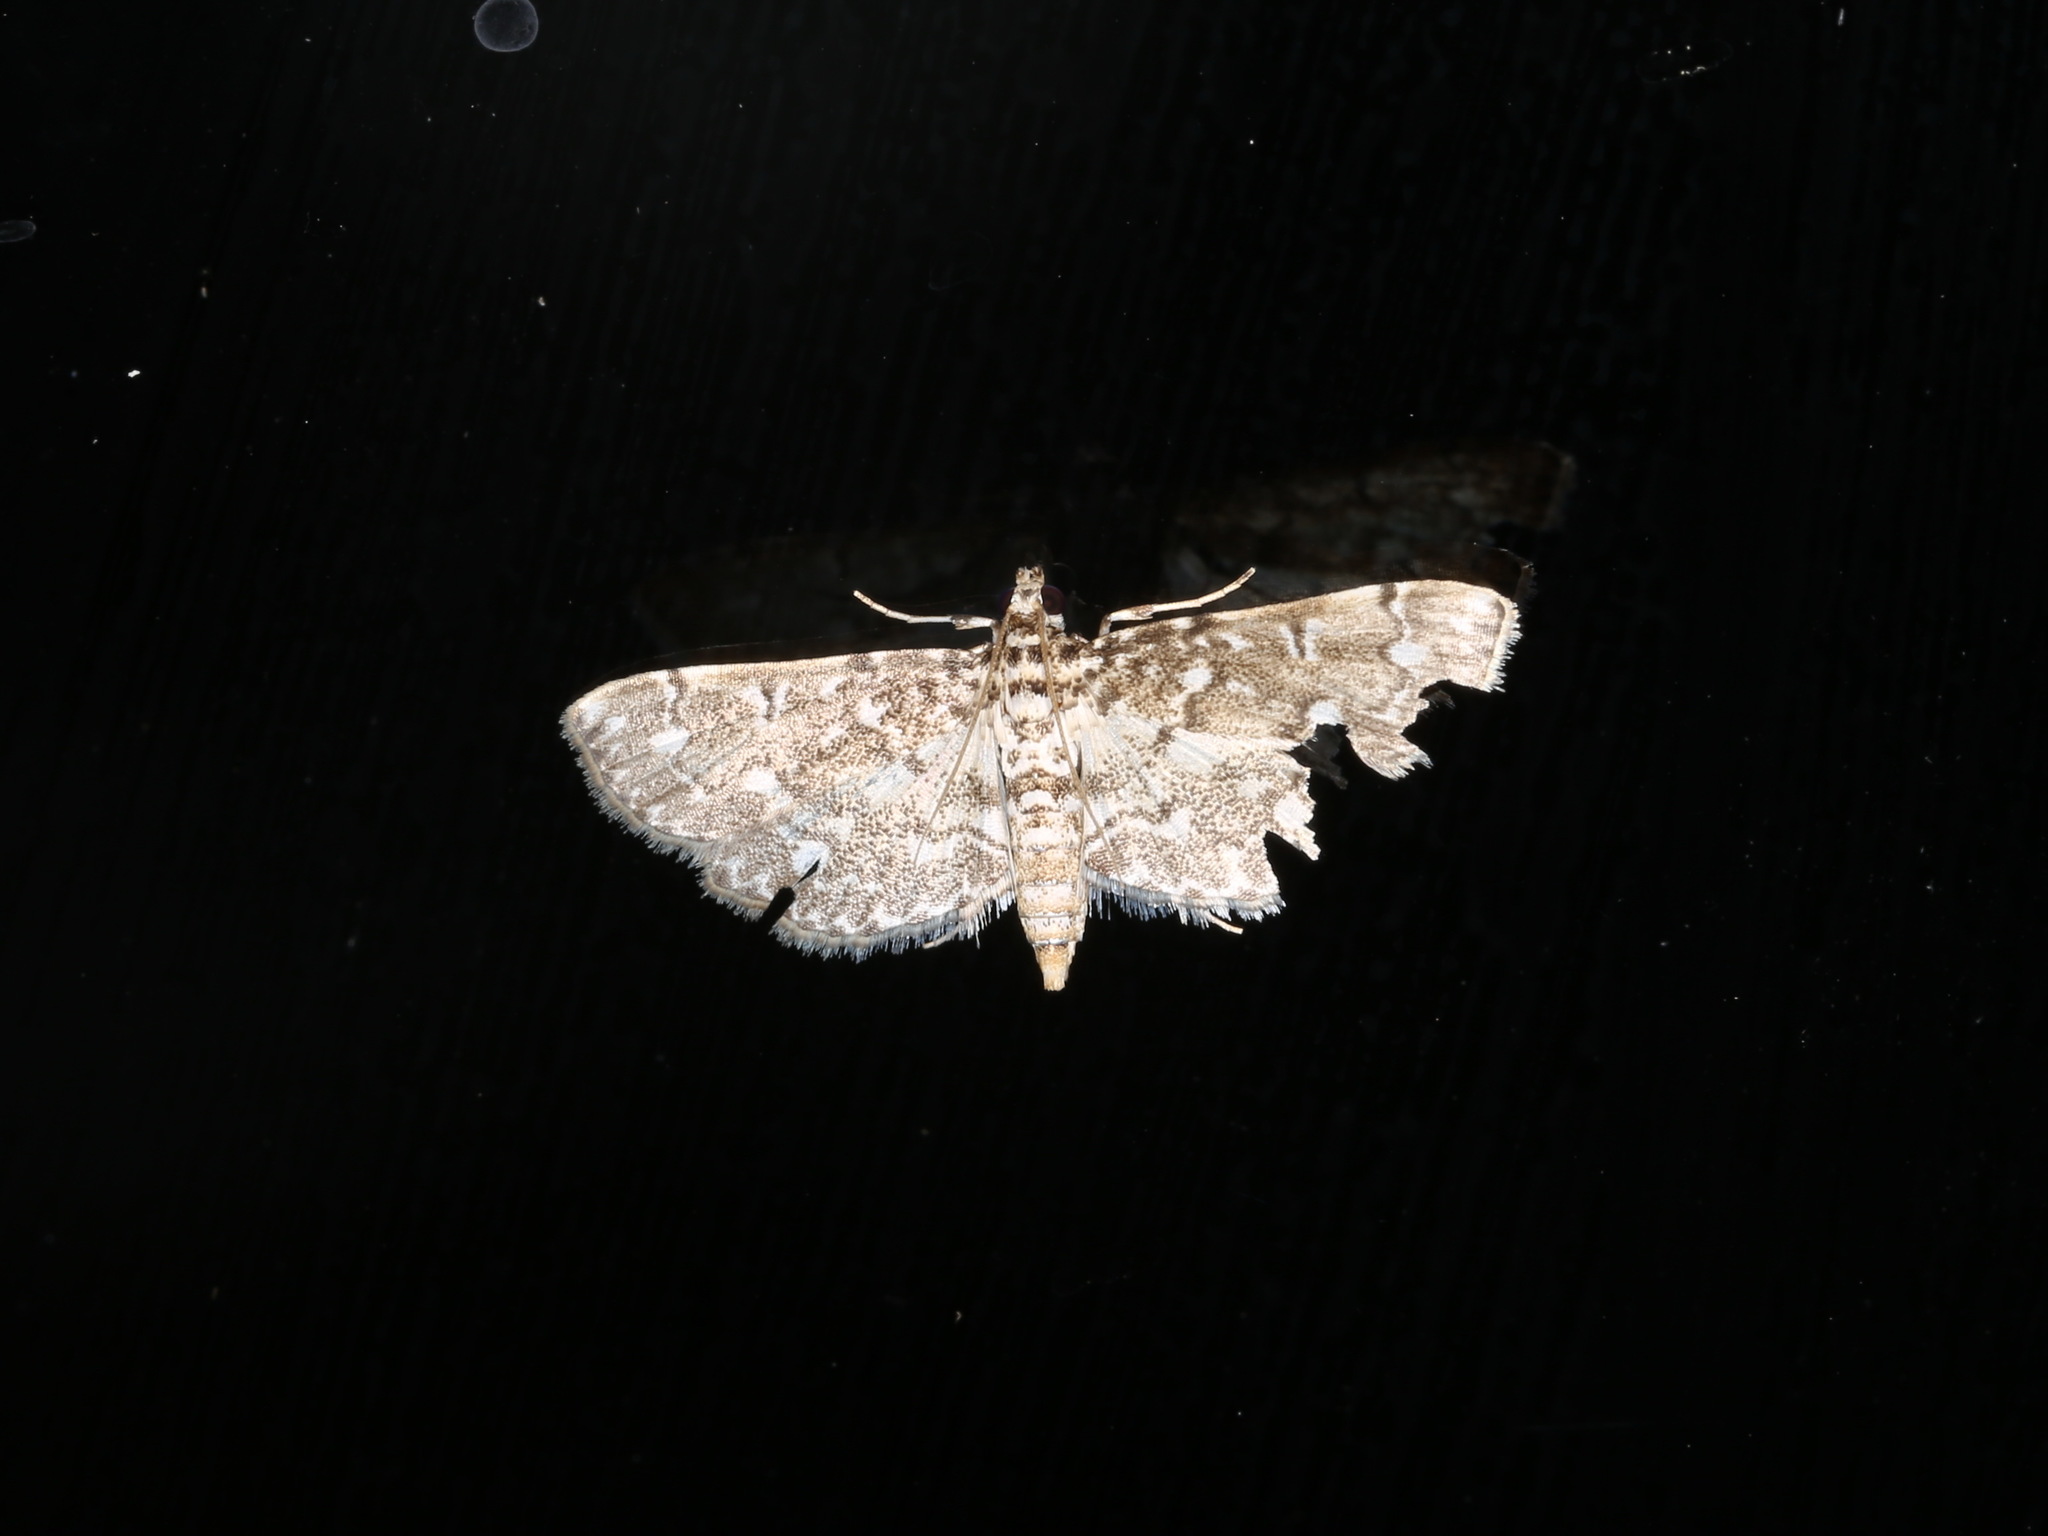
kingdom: Animalia
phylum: Arthropoda
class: Insecta
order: Lepidoptera
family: Crambidae
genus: Eurrhyparodes
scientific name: Eurrhyparodes nymphulalis
